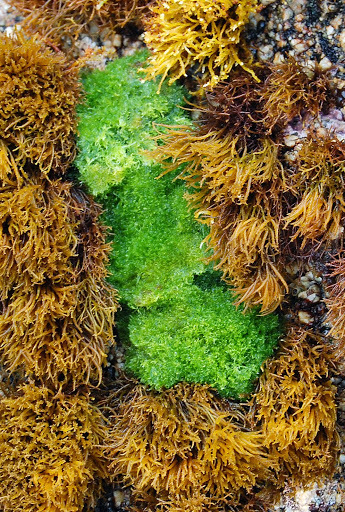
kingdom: Plantae
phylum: Chlorophyta
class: Ulvophyceae
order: Cladophorales
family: Cladophoraceae
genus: Cladophora
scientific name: Cladophora columbiana
